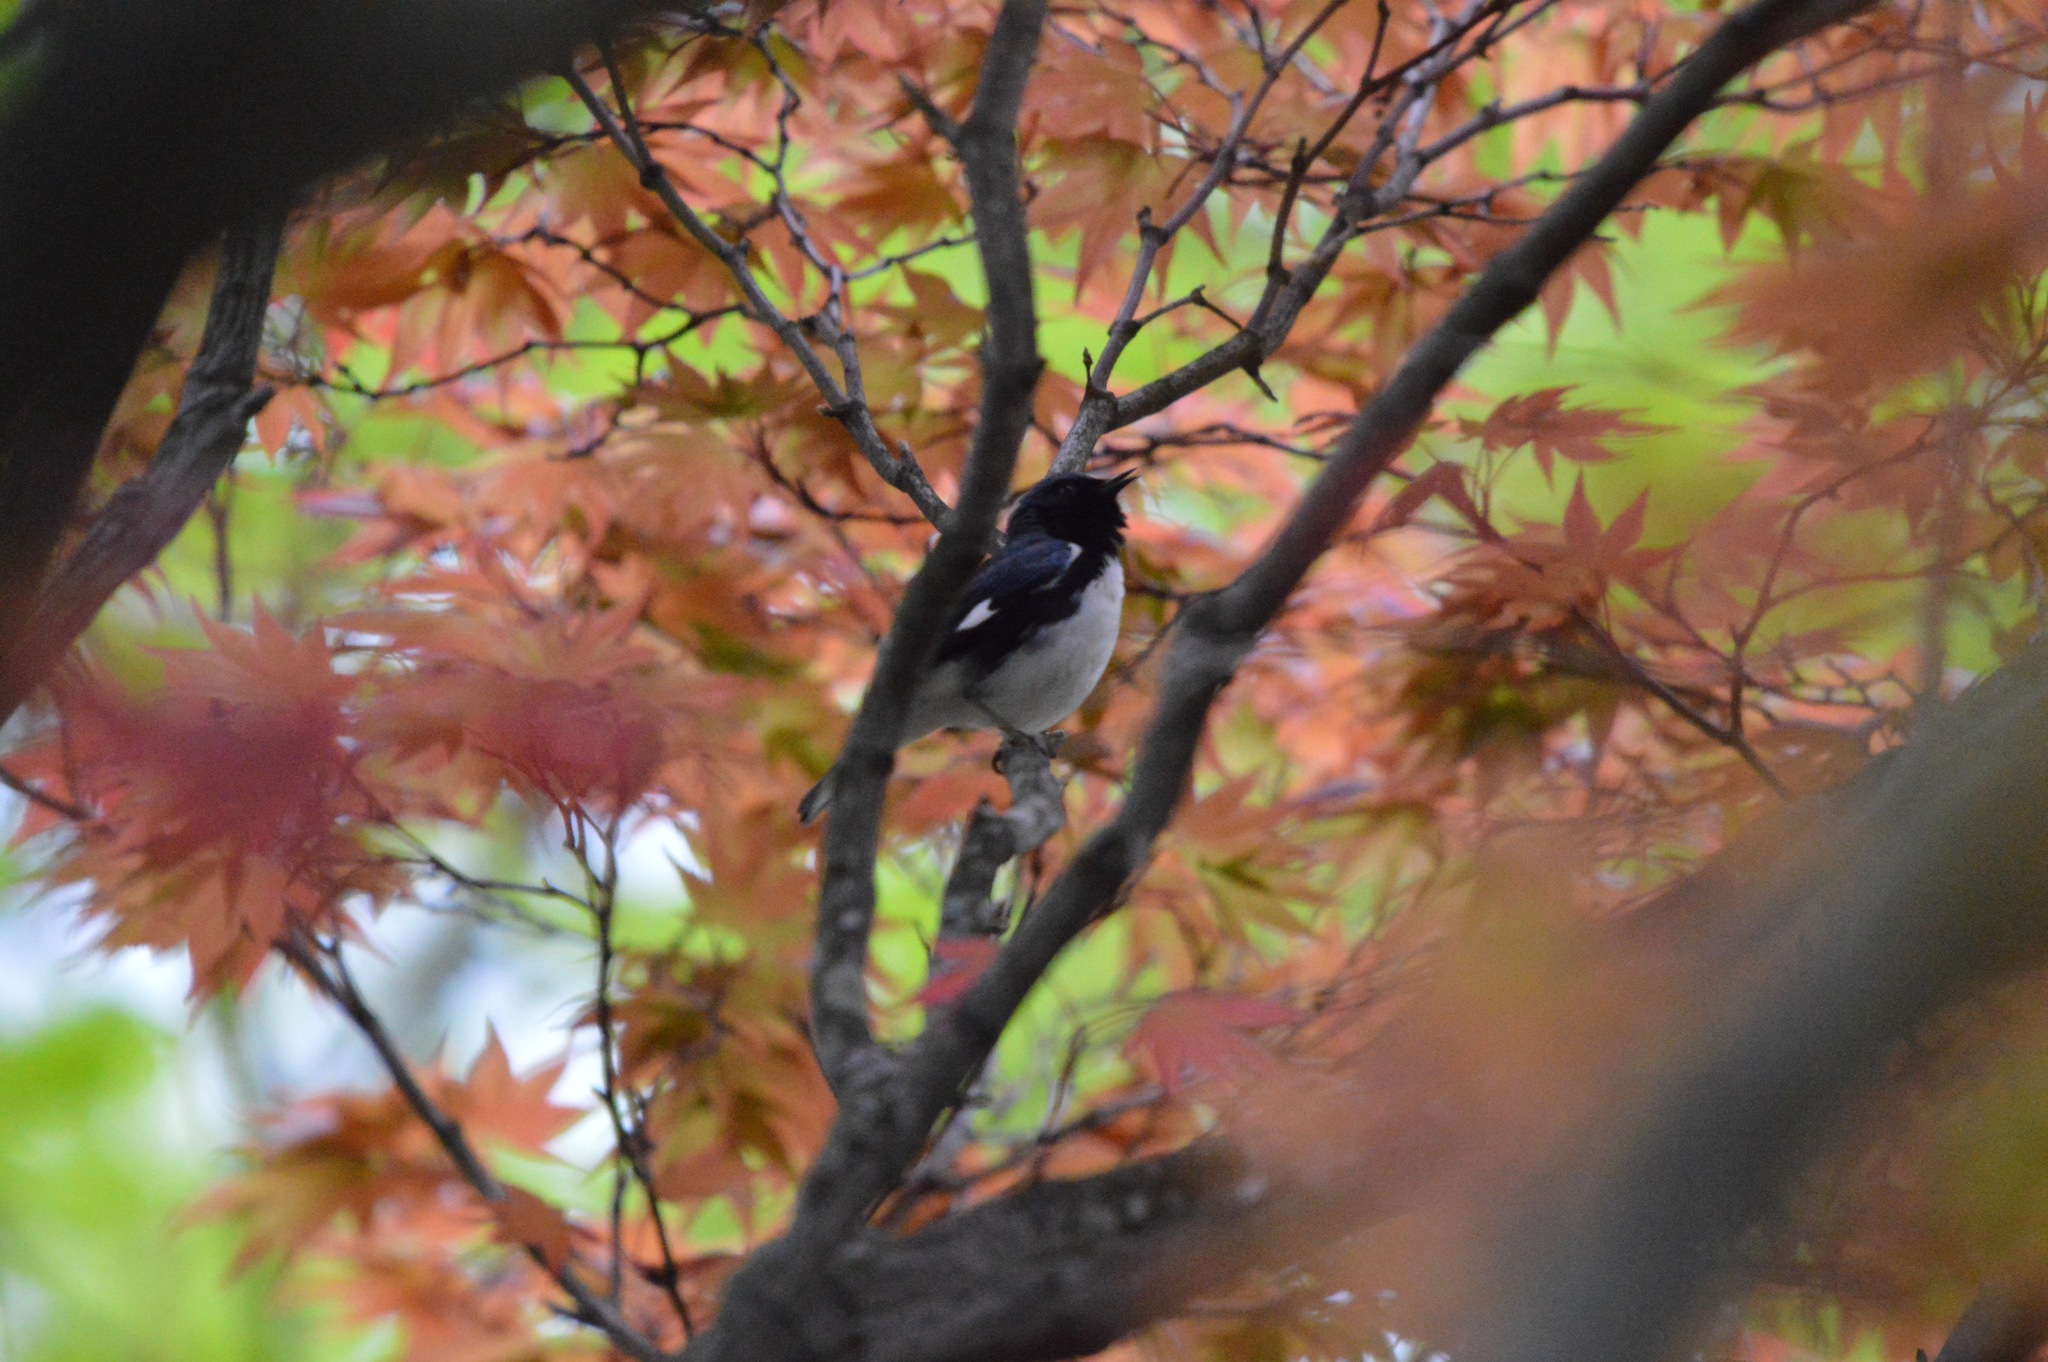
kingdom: Animalia
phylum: Chordata
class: Aves
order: Passeriformes
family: Parulidae
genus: Setophaga
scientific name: Setophaga caerulescens
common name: Black-throated blue warbler
